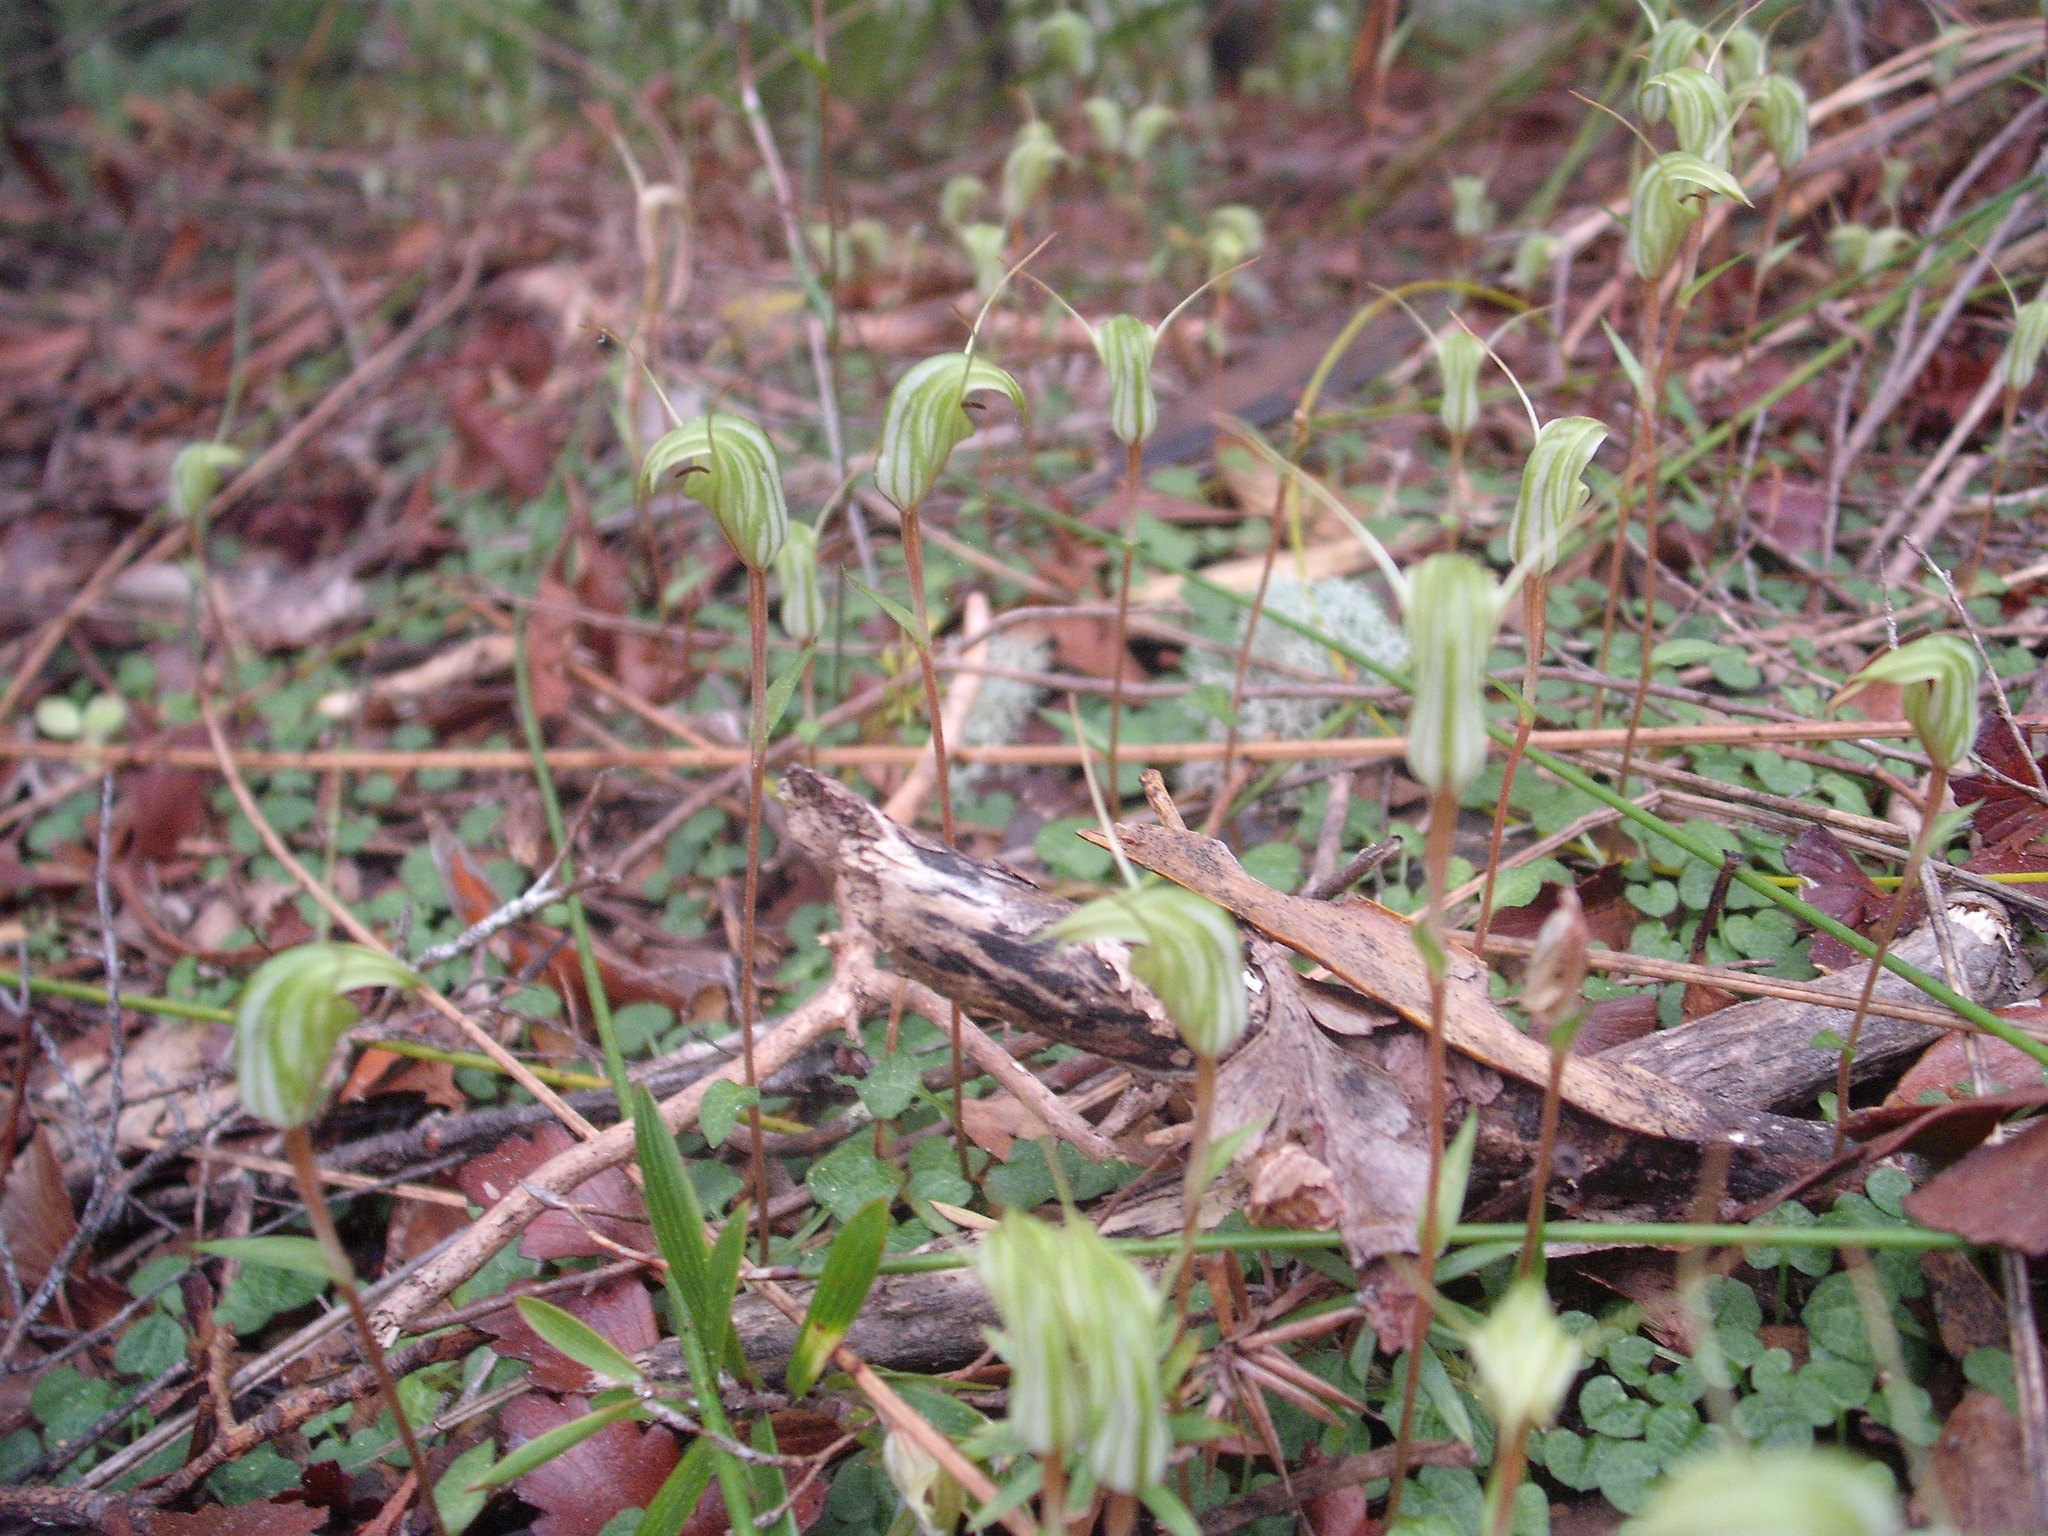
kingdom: Plantae
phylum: Tracheophyta
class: Liliopsida
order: Asparagales
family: Orchidaceae
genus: Pterostylis
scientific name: Pterostylis trullifolia
